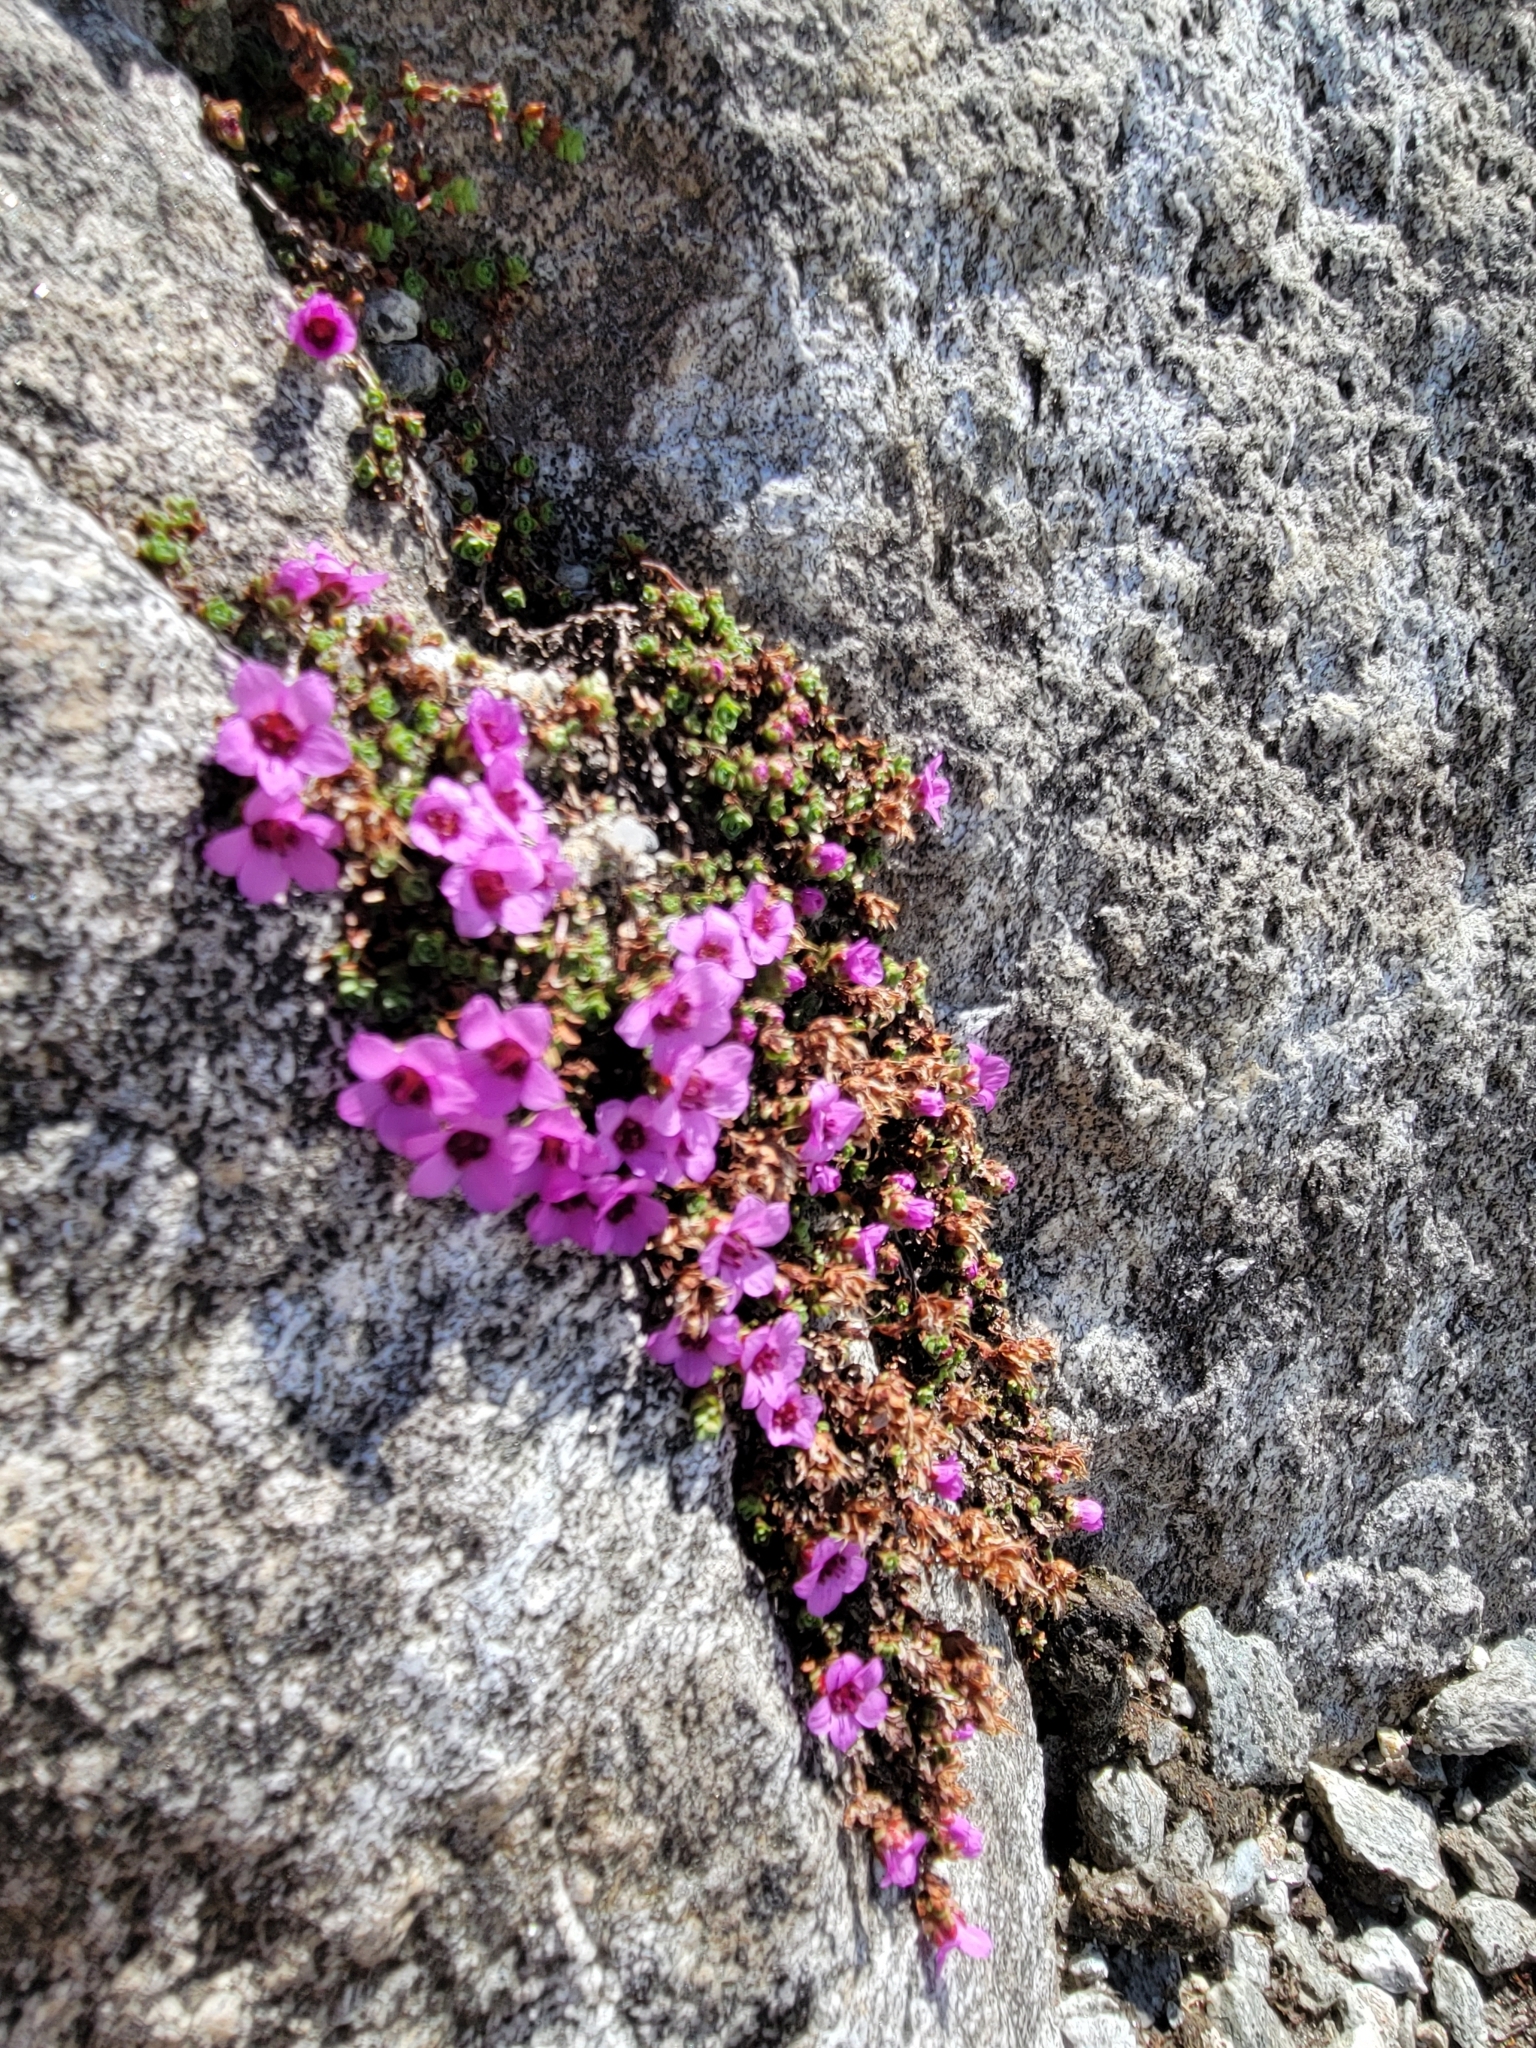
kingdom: Plantae
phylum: Tracheophyta
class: Magnoliopsida
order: Saxifragales
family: Saxifragaceae
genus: Saxifraga
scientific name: Saxifraga oppositifolia
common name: Purple saxifrage
